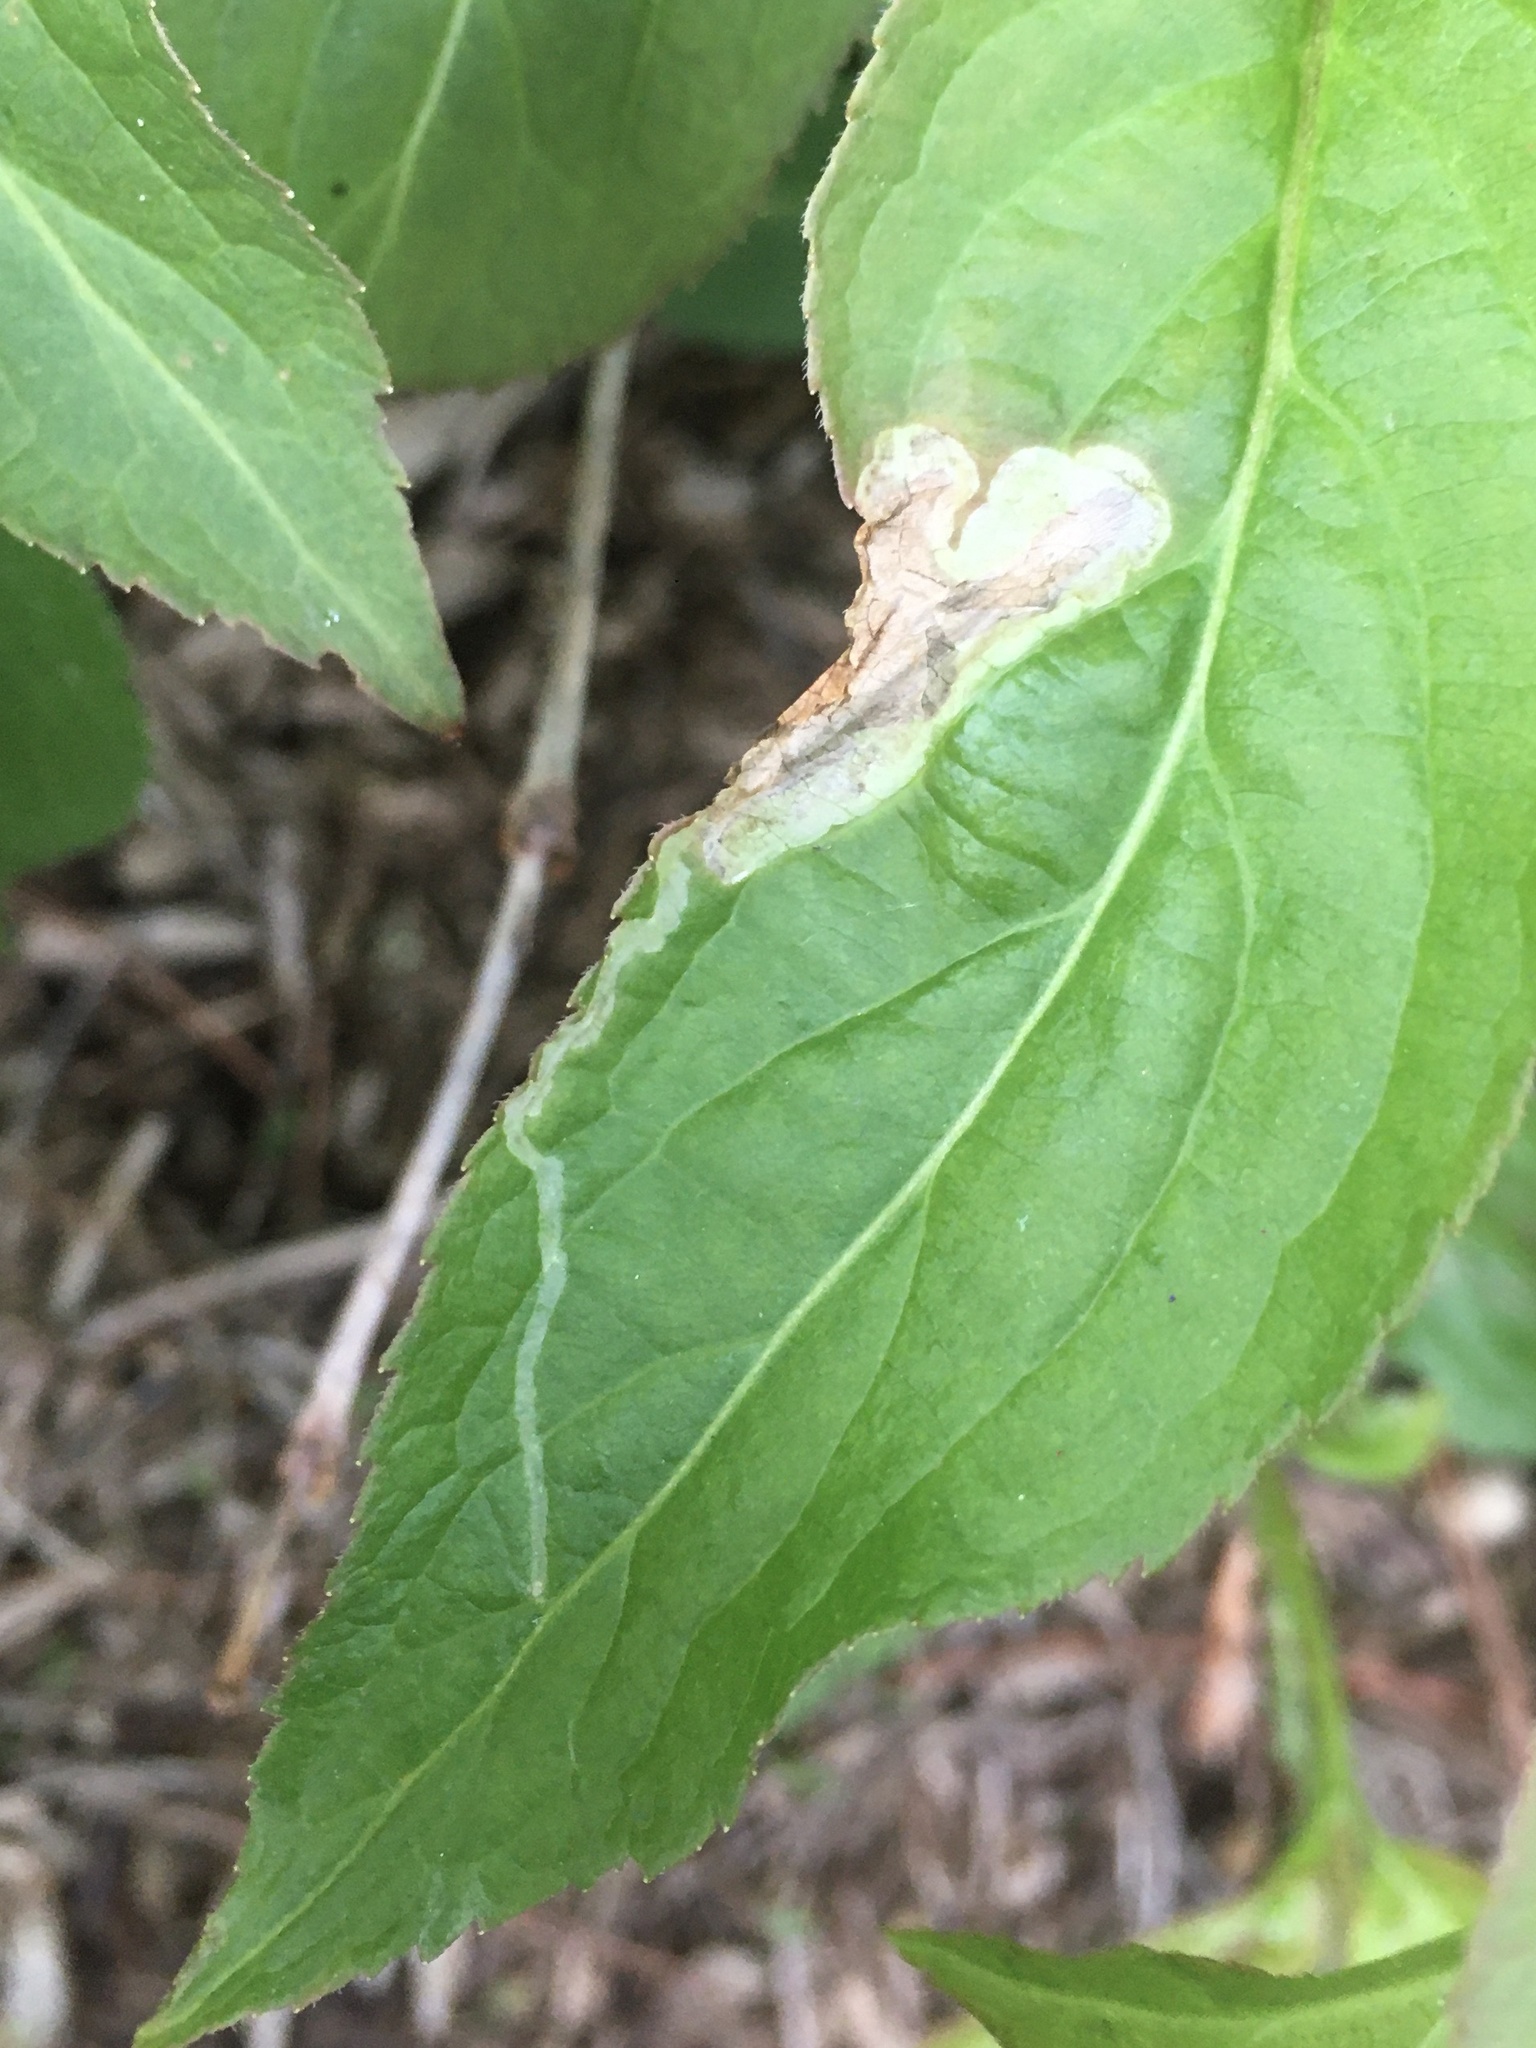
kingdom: Animalia
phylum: Arthropoda
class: Insecta
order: Diptera
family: Agromyzidae
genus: Aulagromyza
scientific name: Aulagromyza orbitalis
